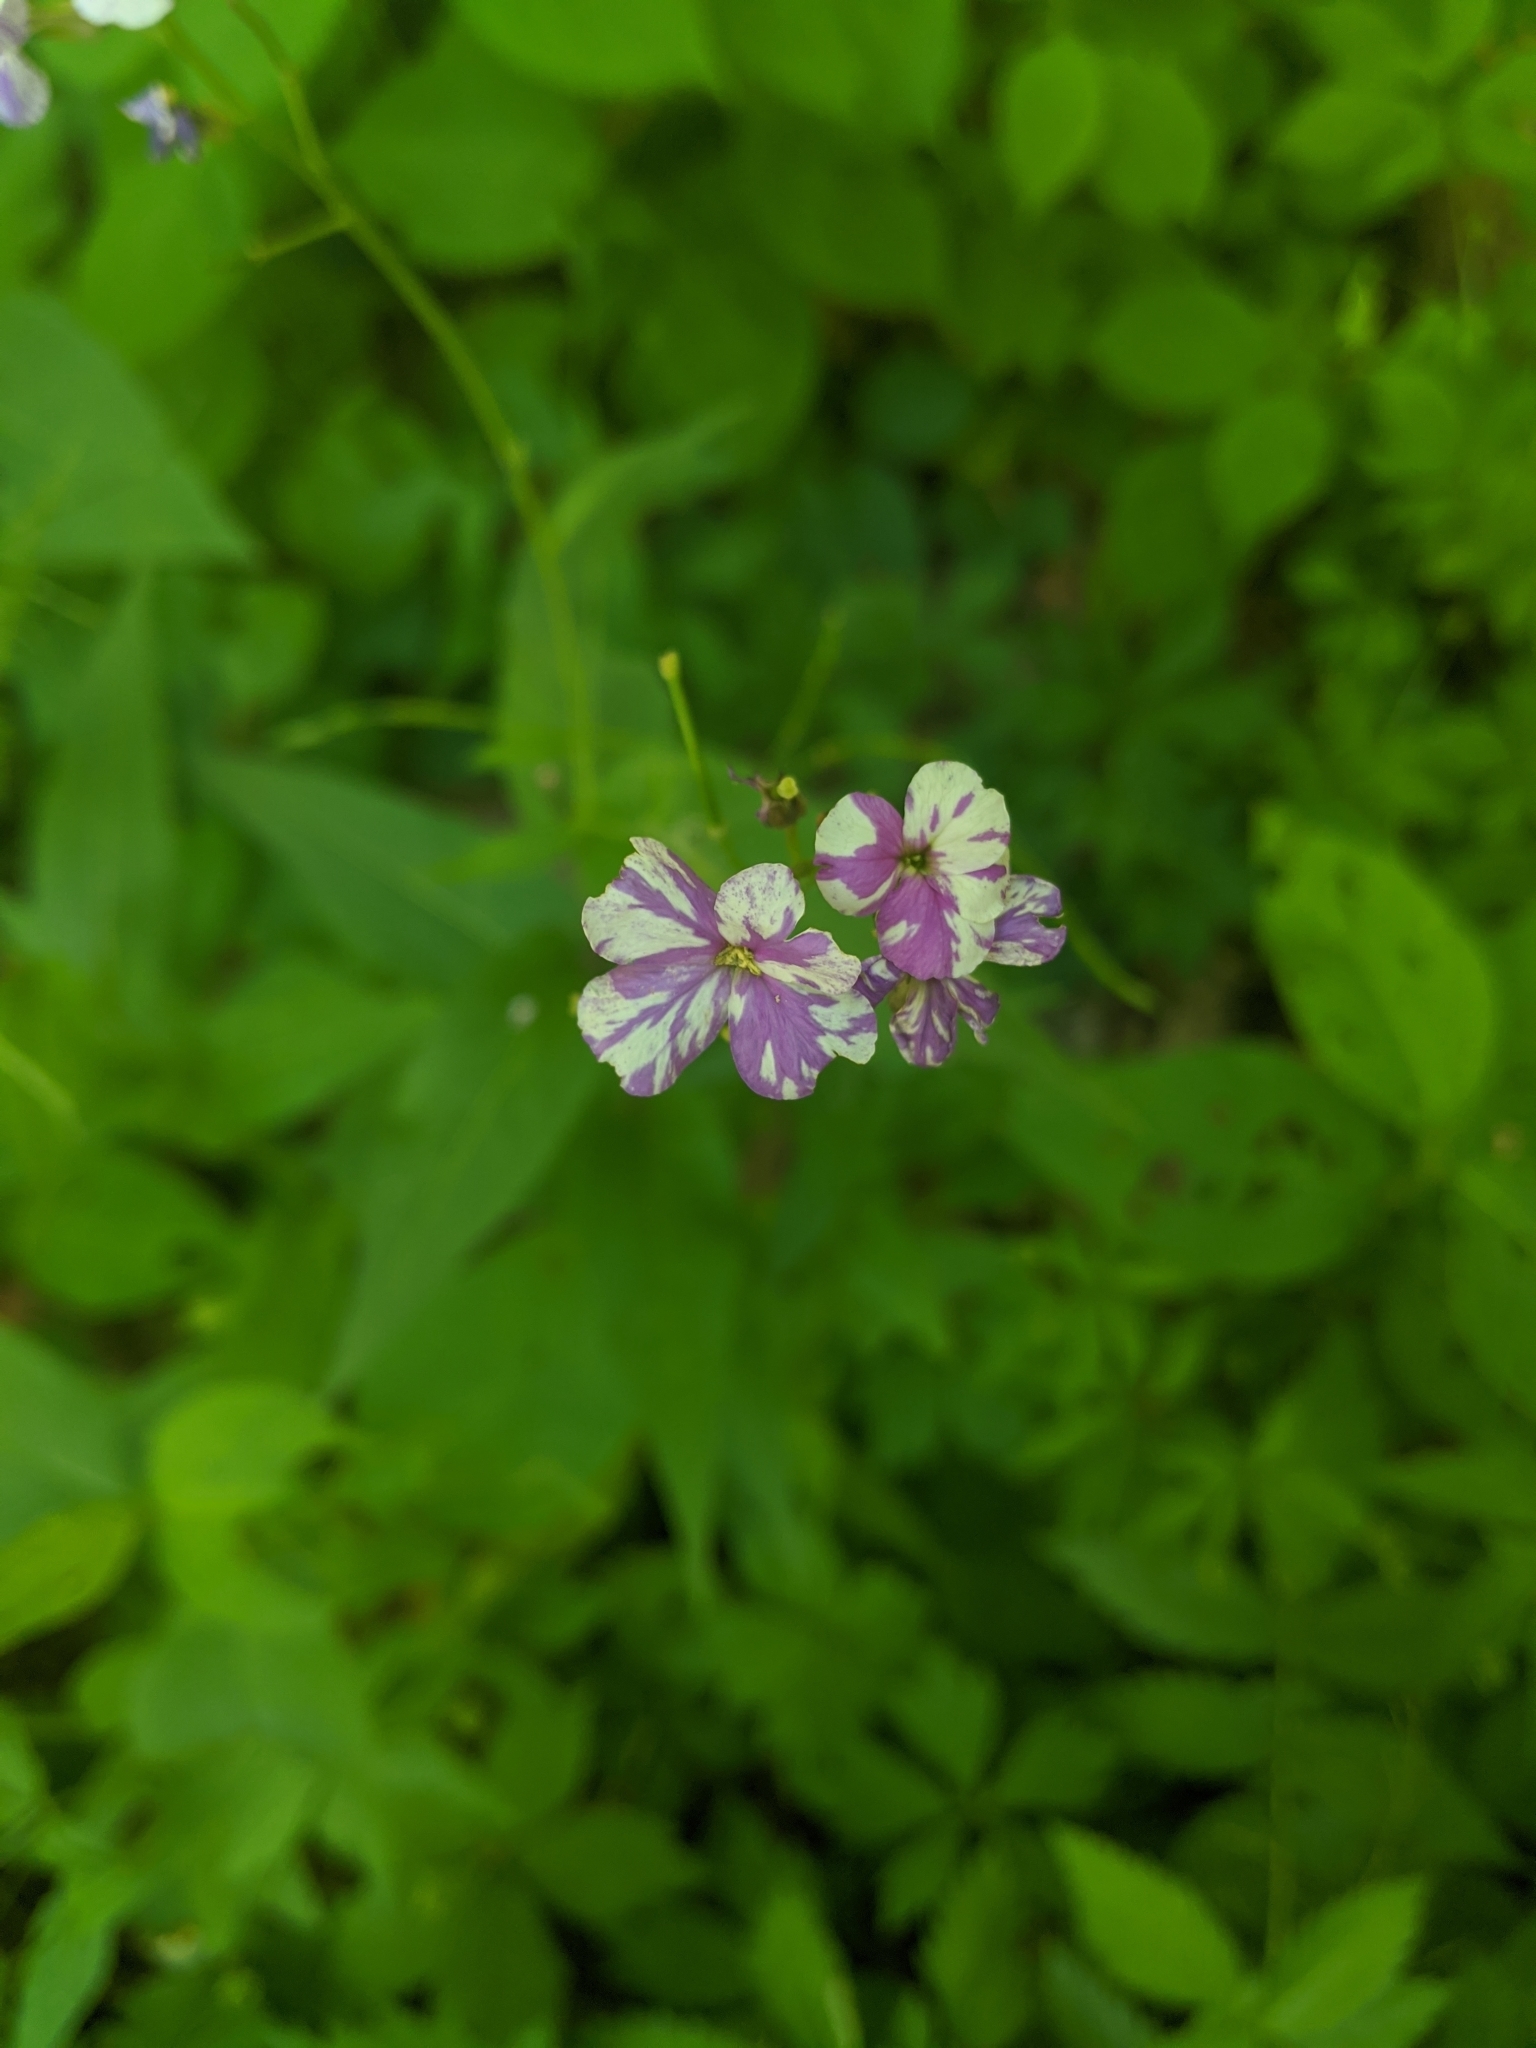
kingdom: Plantae
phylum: Tracheophyta
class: Magnoliopsida
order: Brassicales
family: Brassicaceae
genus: Hesperis
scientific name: Hesperis matronalis
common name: Dame's-violet
